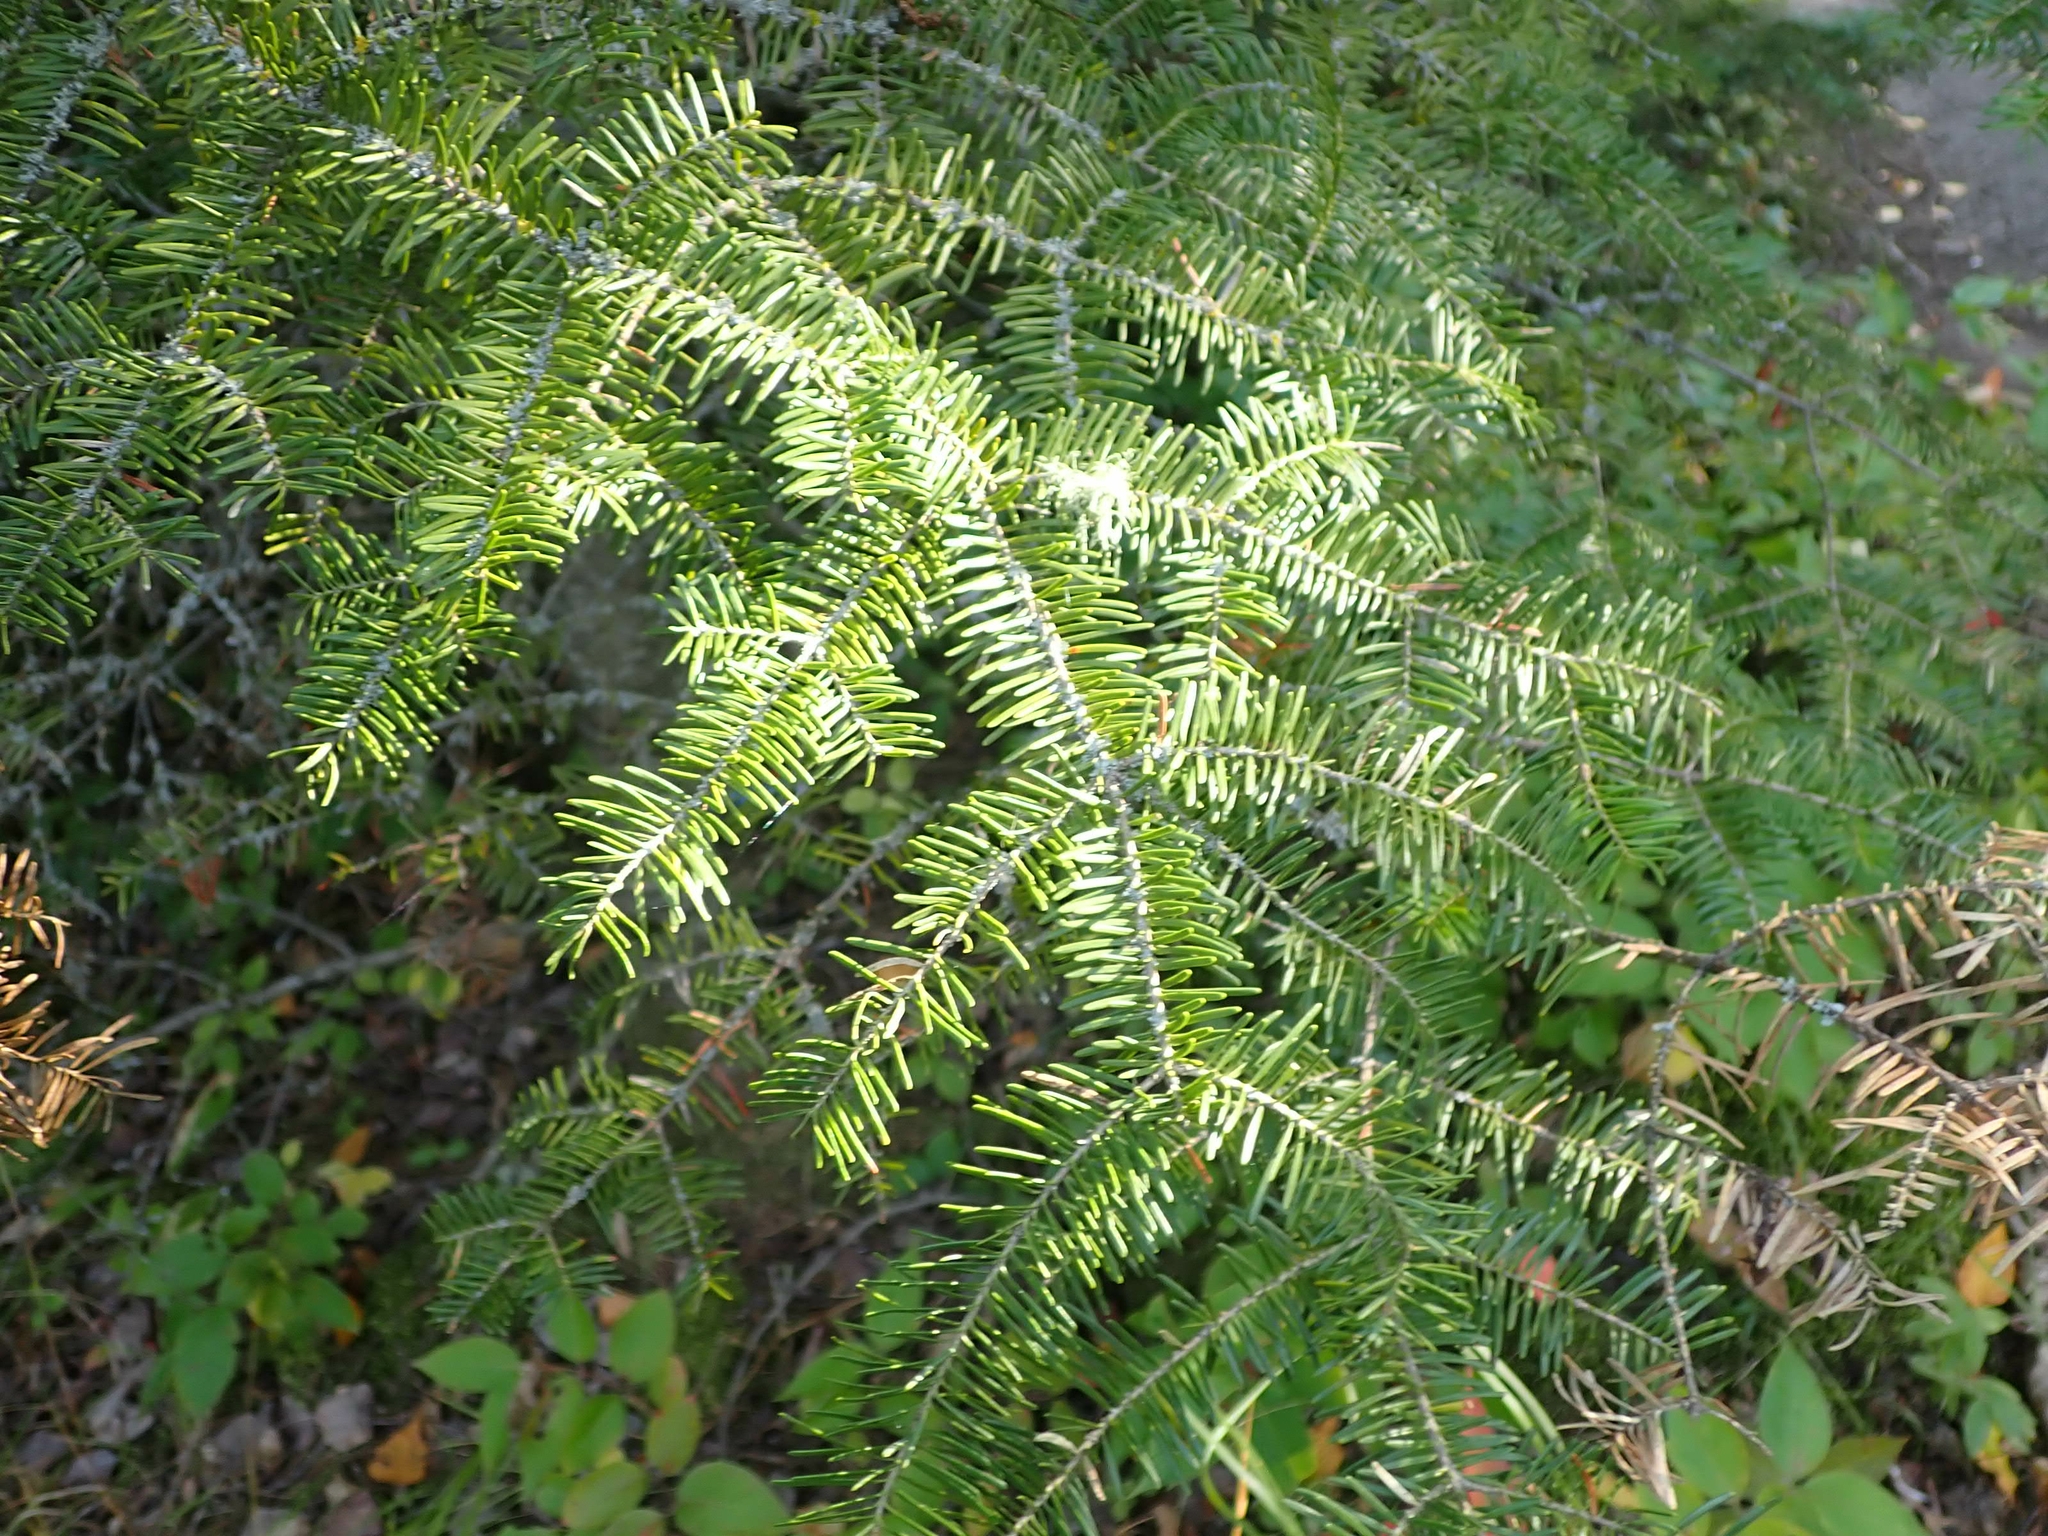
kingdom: Plantae
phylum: Tracheophyta
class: Pinopsida
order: Pinales
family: Pinaceae
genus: Abies
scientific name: Abies balsamea
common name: Balsam fir
